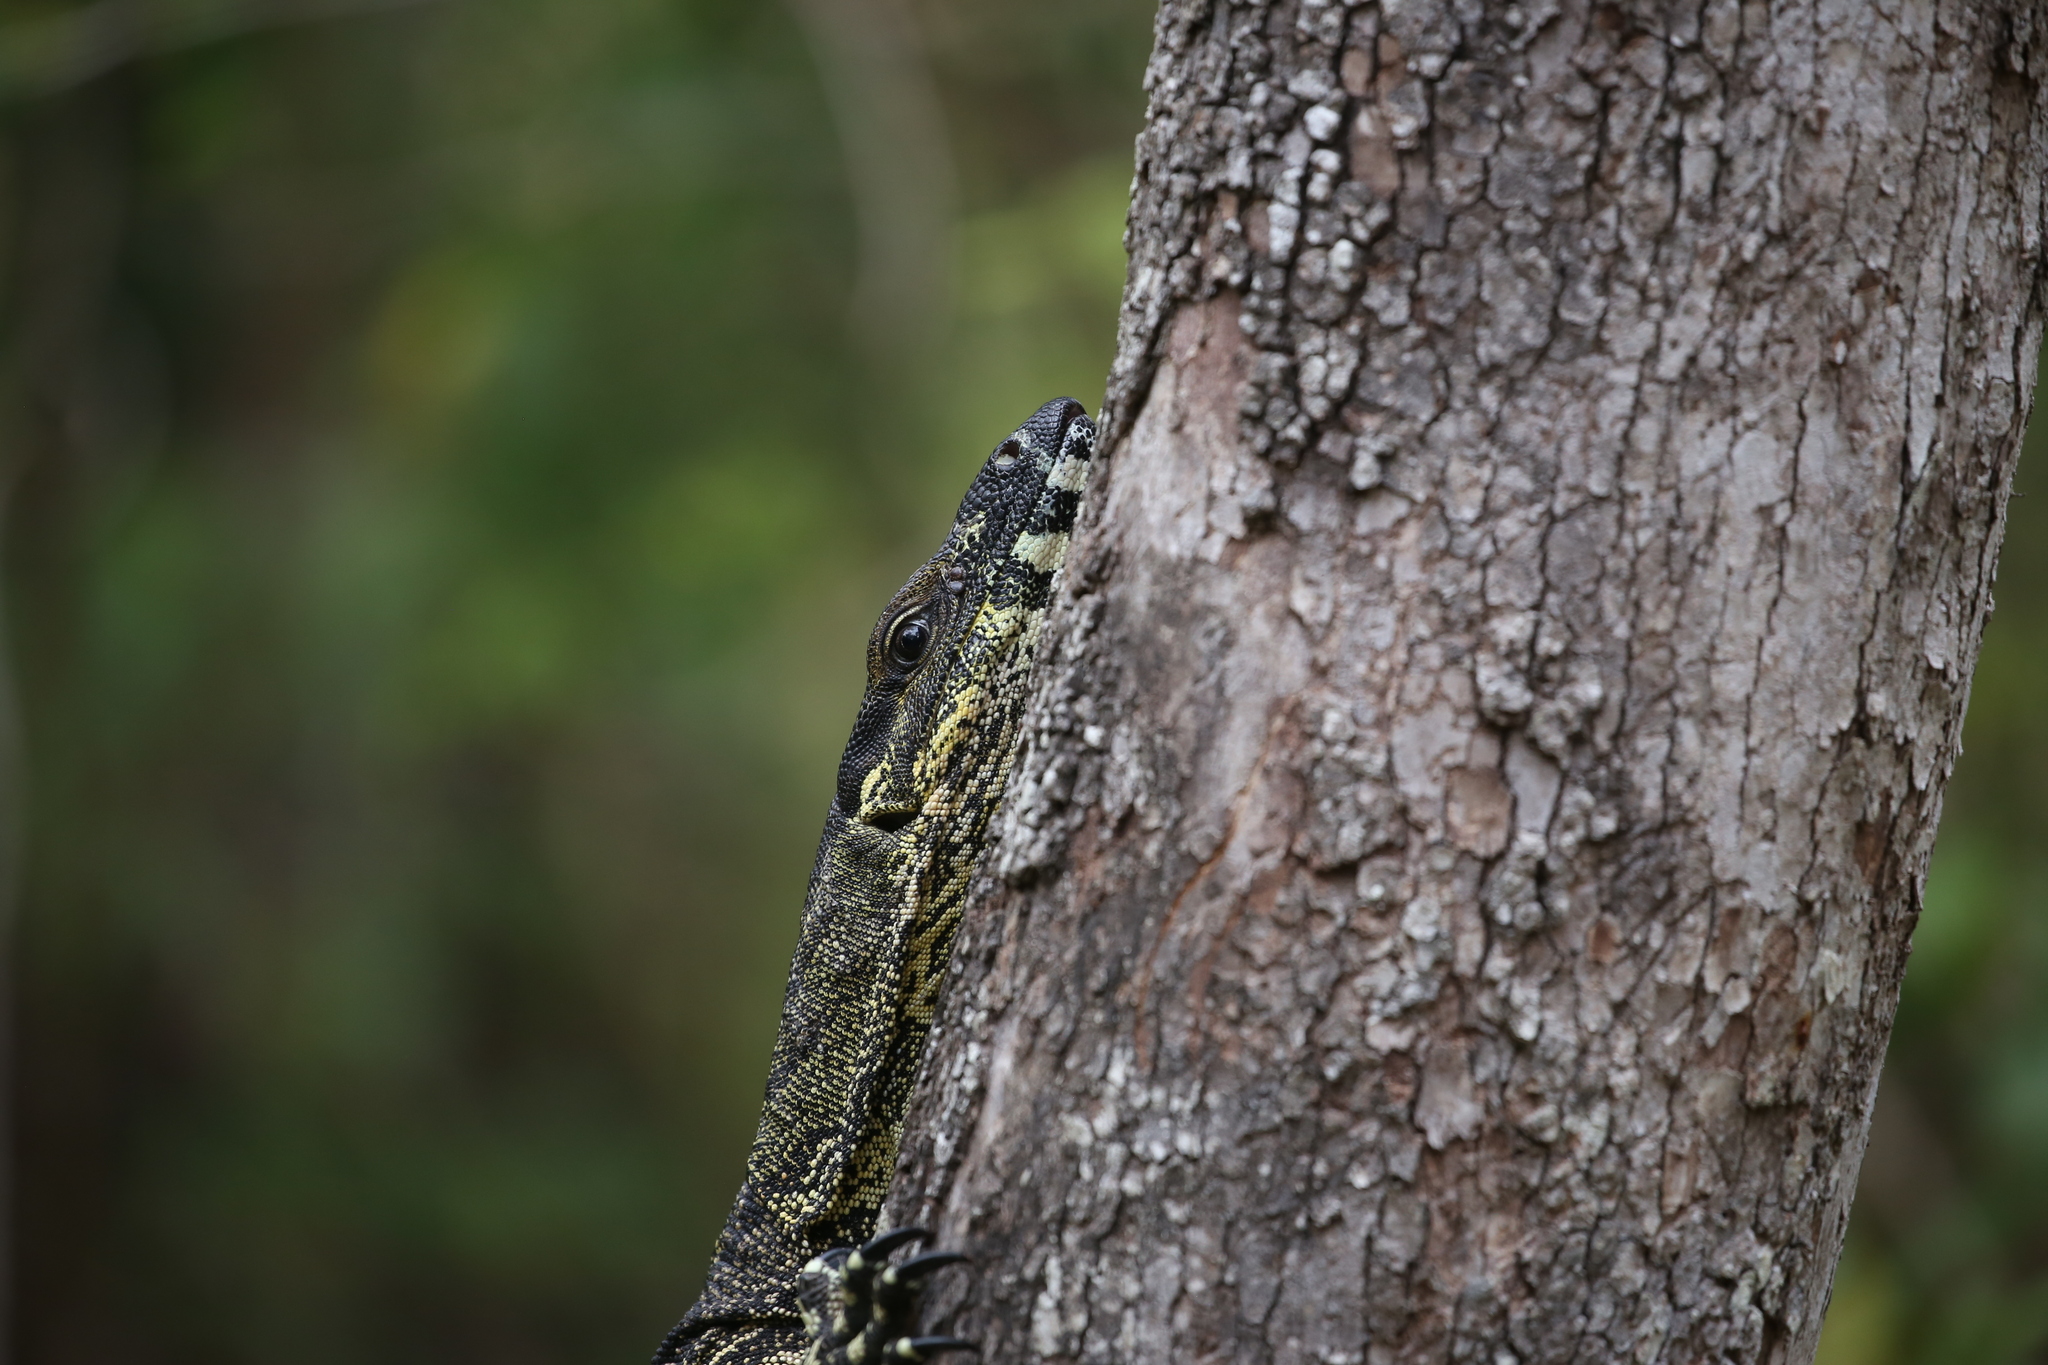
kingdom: Animalia
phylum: Chordata
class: Squamata
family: Varanidae
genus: Varanus
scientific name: Varanus varius
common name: Lace monitor
